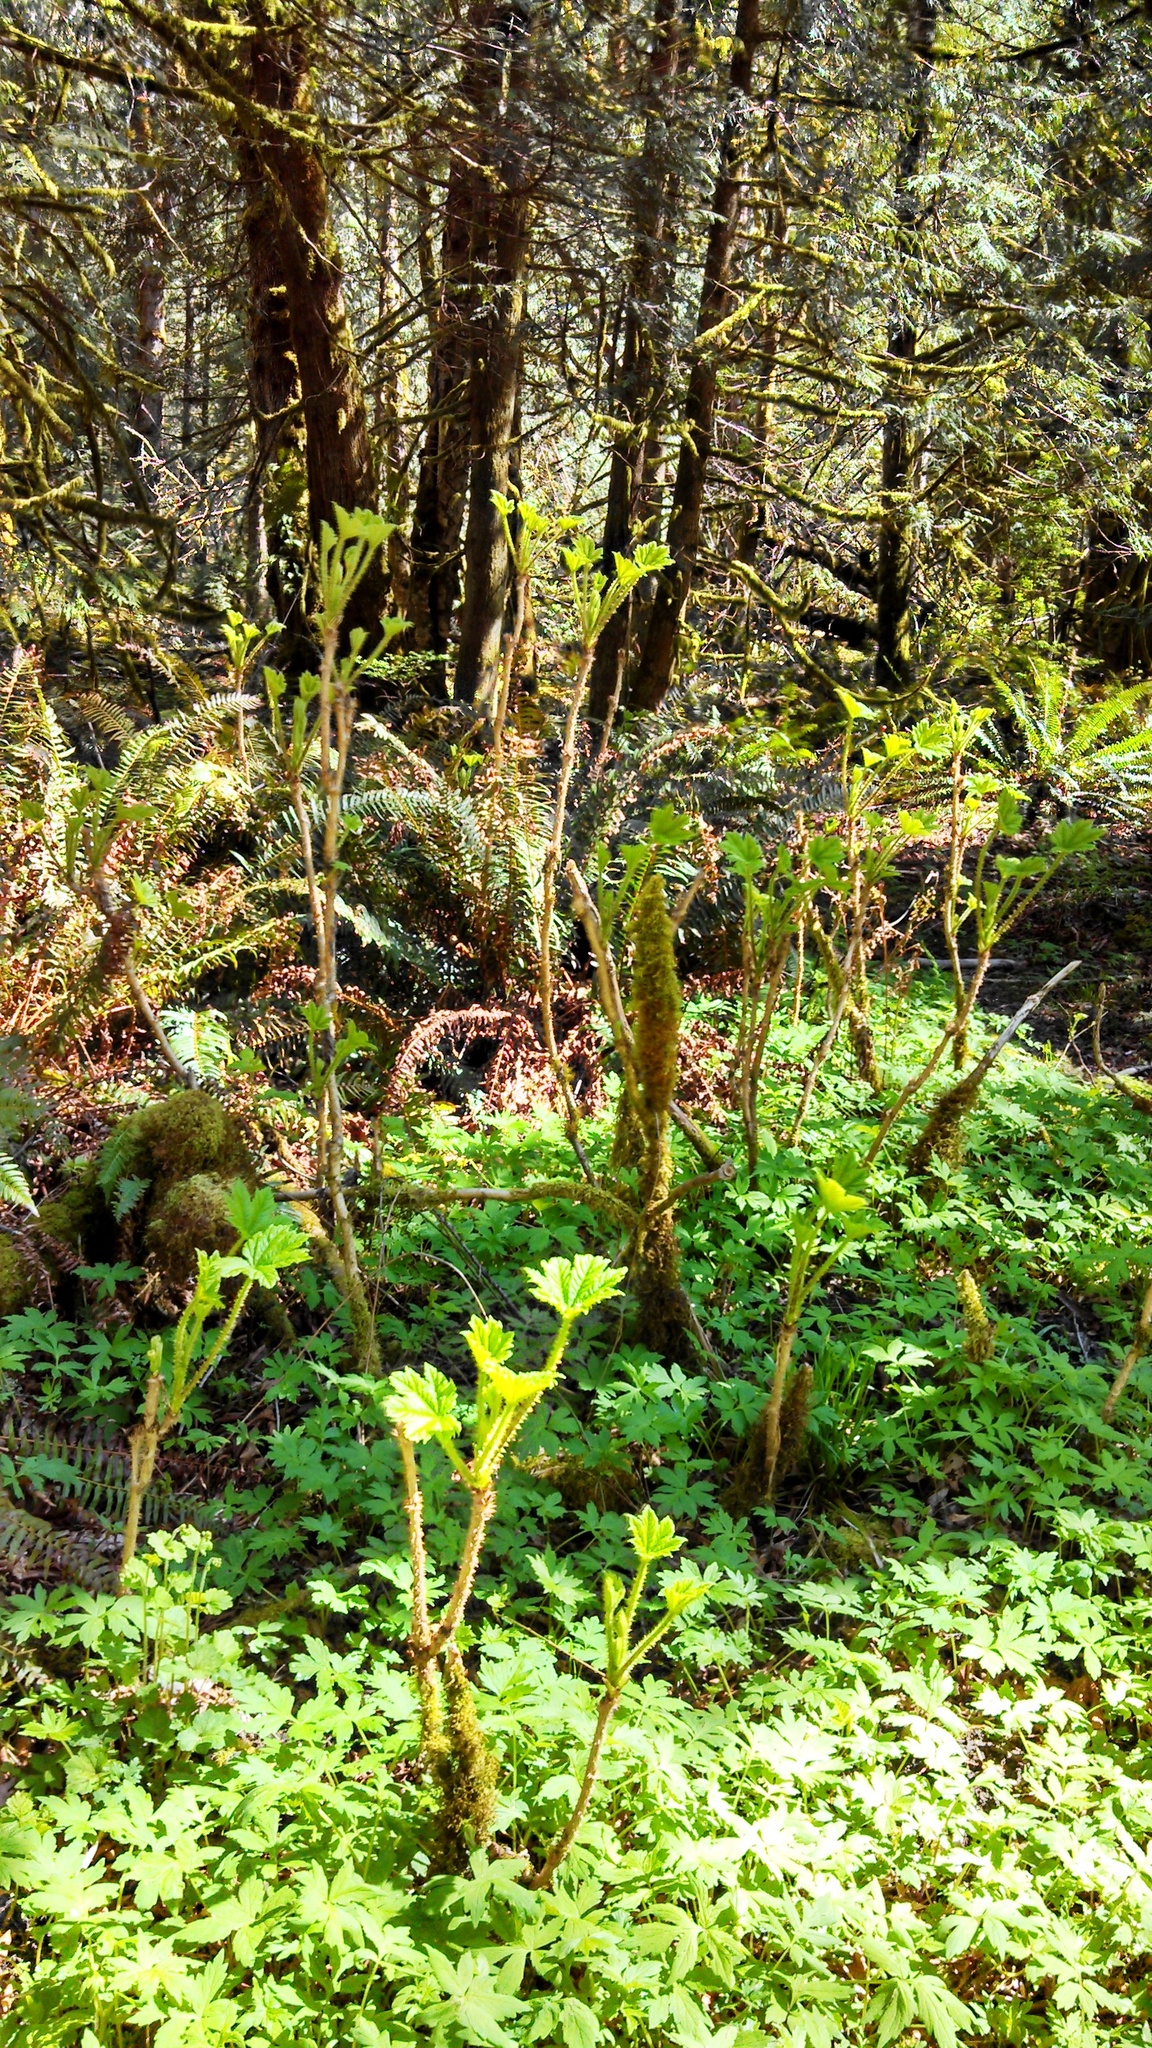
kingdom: Plantae
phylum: Tracheophyta
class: Magnoliopsida
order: Apiales
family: Araliaceae
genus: Oplopanax
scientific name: Oplopanax horridus
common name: Devil's walking-stick
